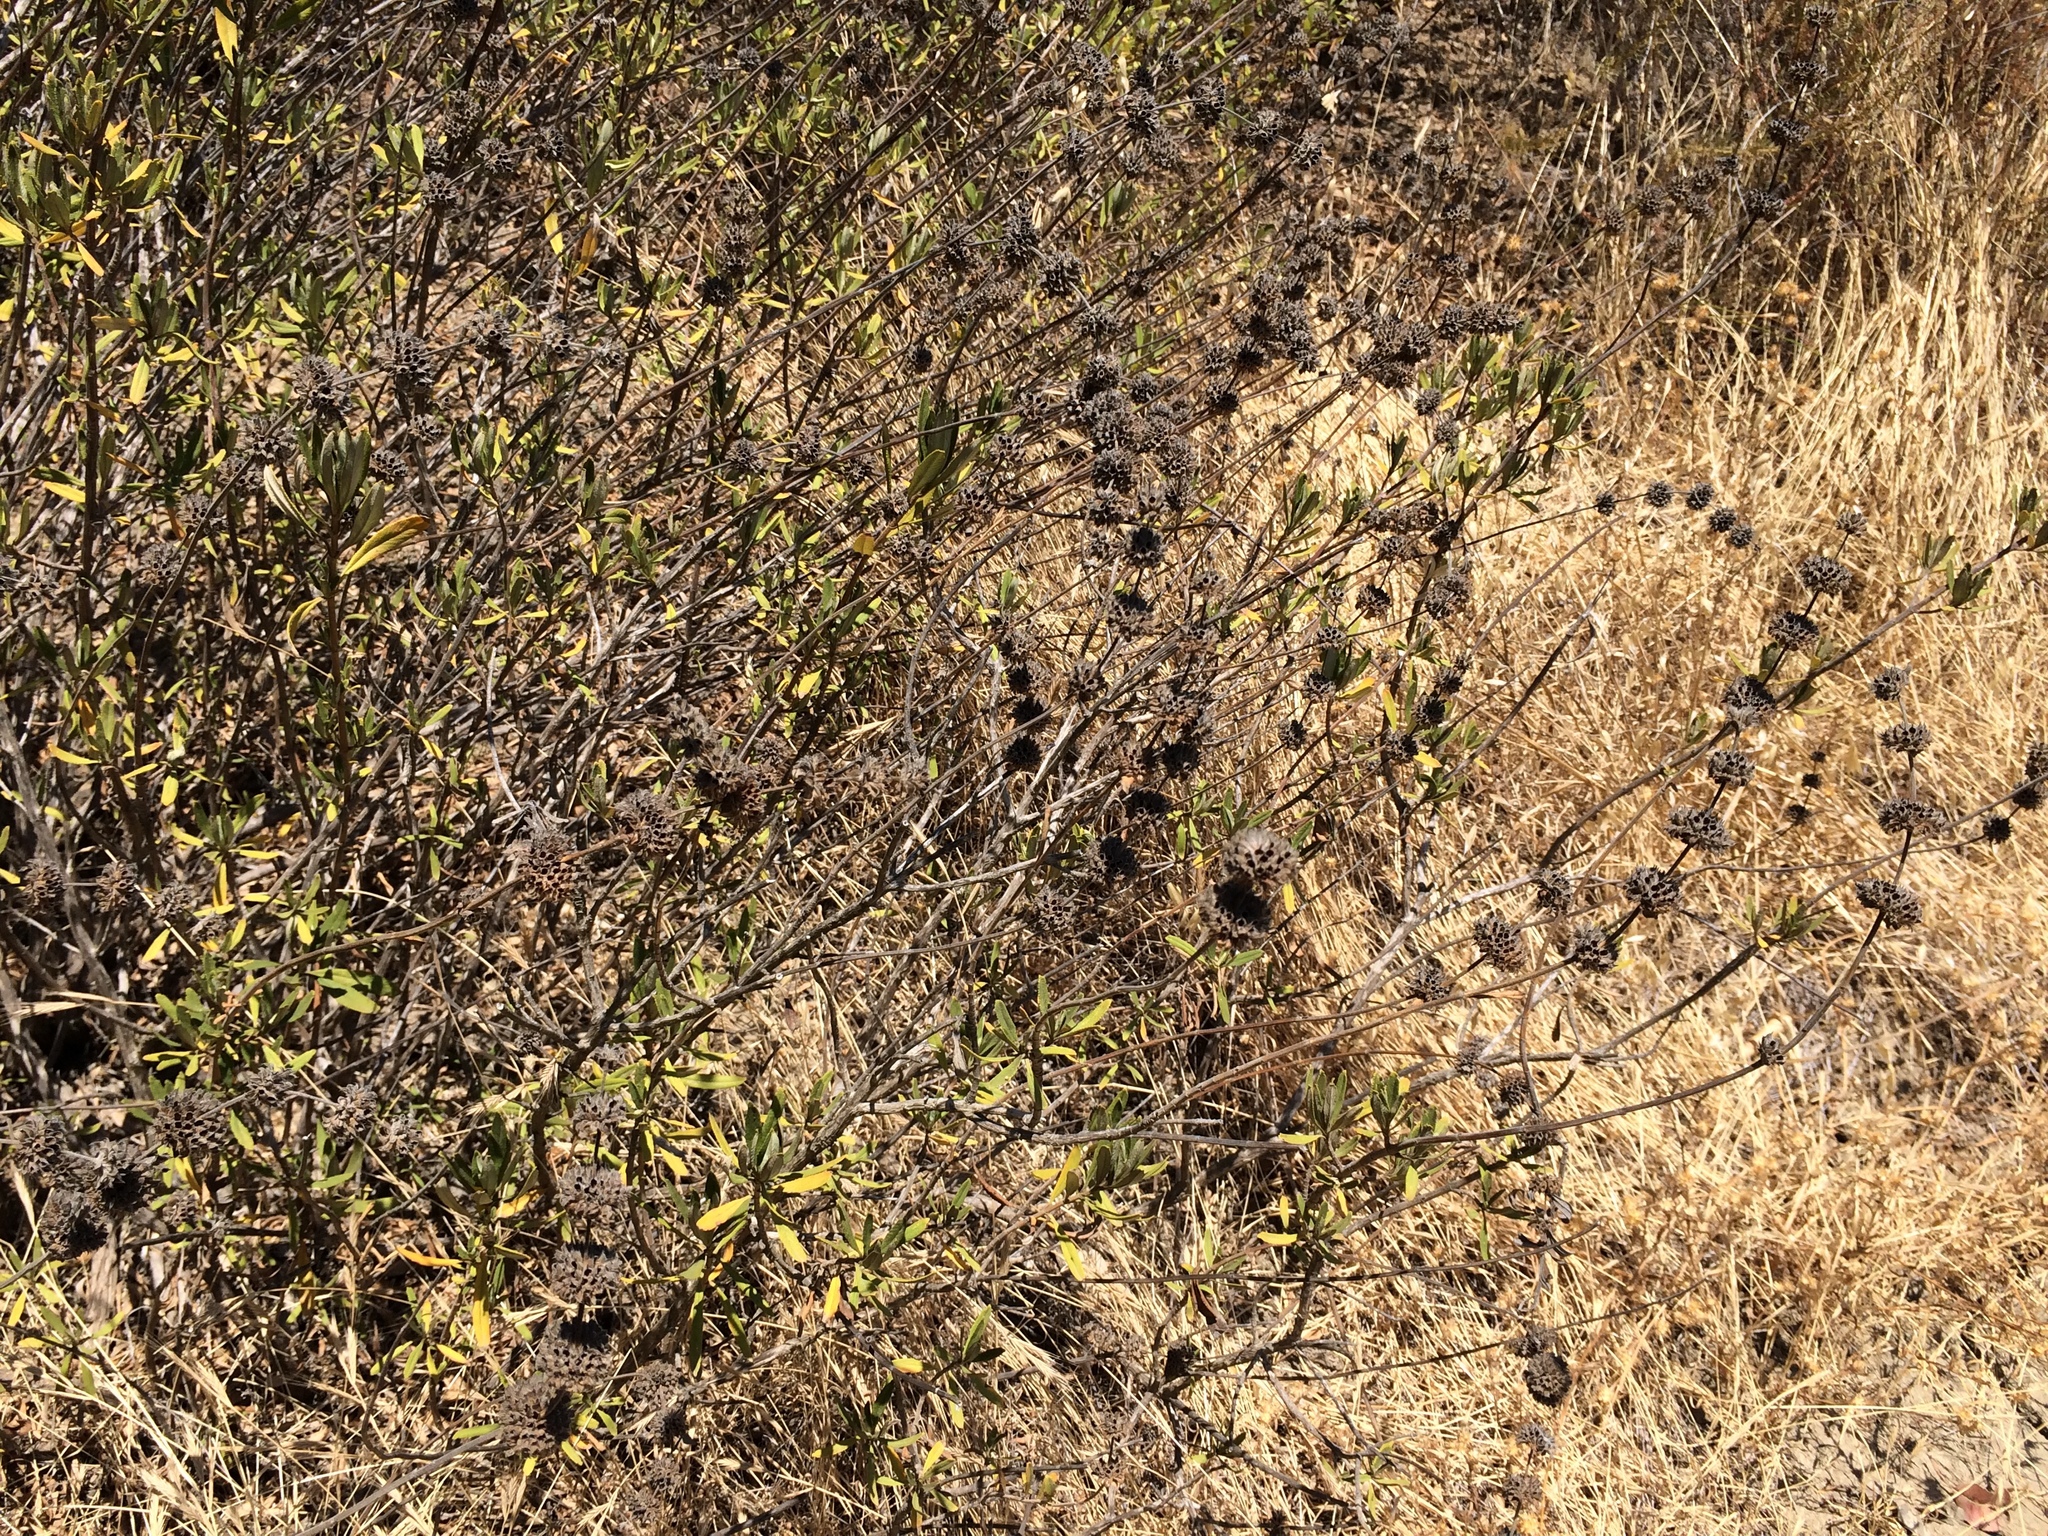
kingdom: Plantae
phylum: Tracheophyta
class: Magnoliopsida
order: Lamiales
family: Lamiaceae
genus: Salvia
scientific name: Salvia mellifera
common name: Black sage
